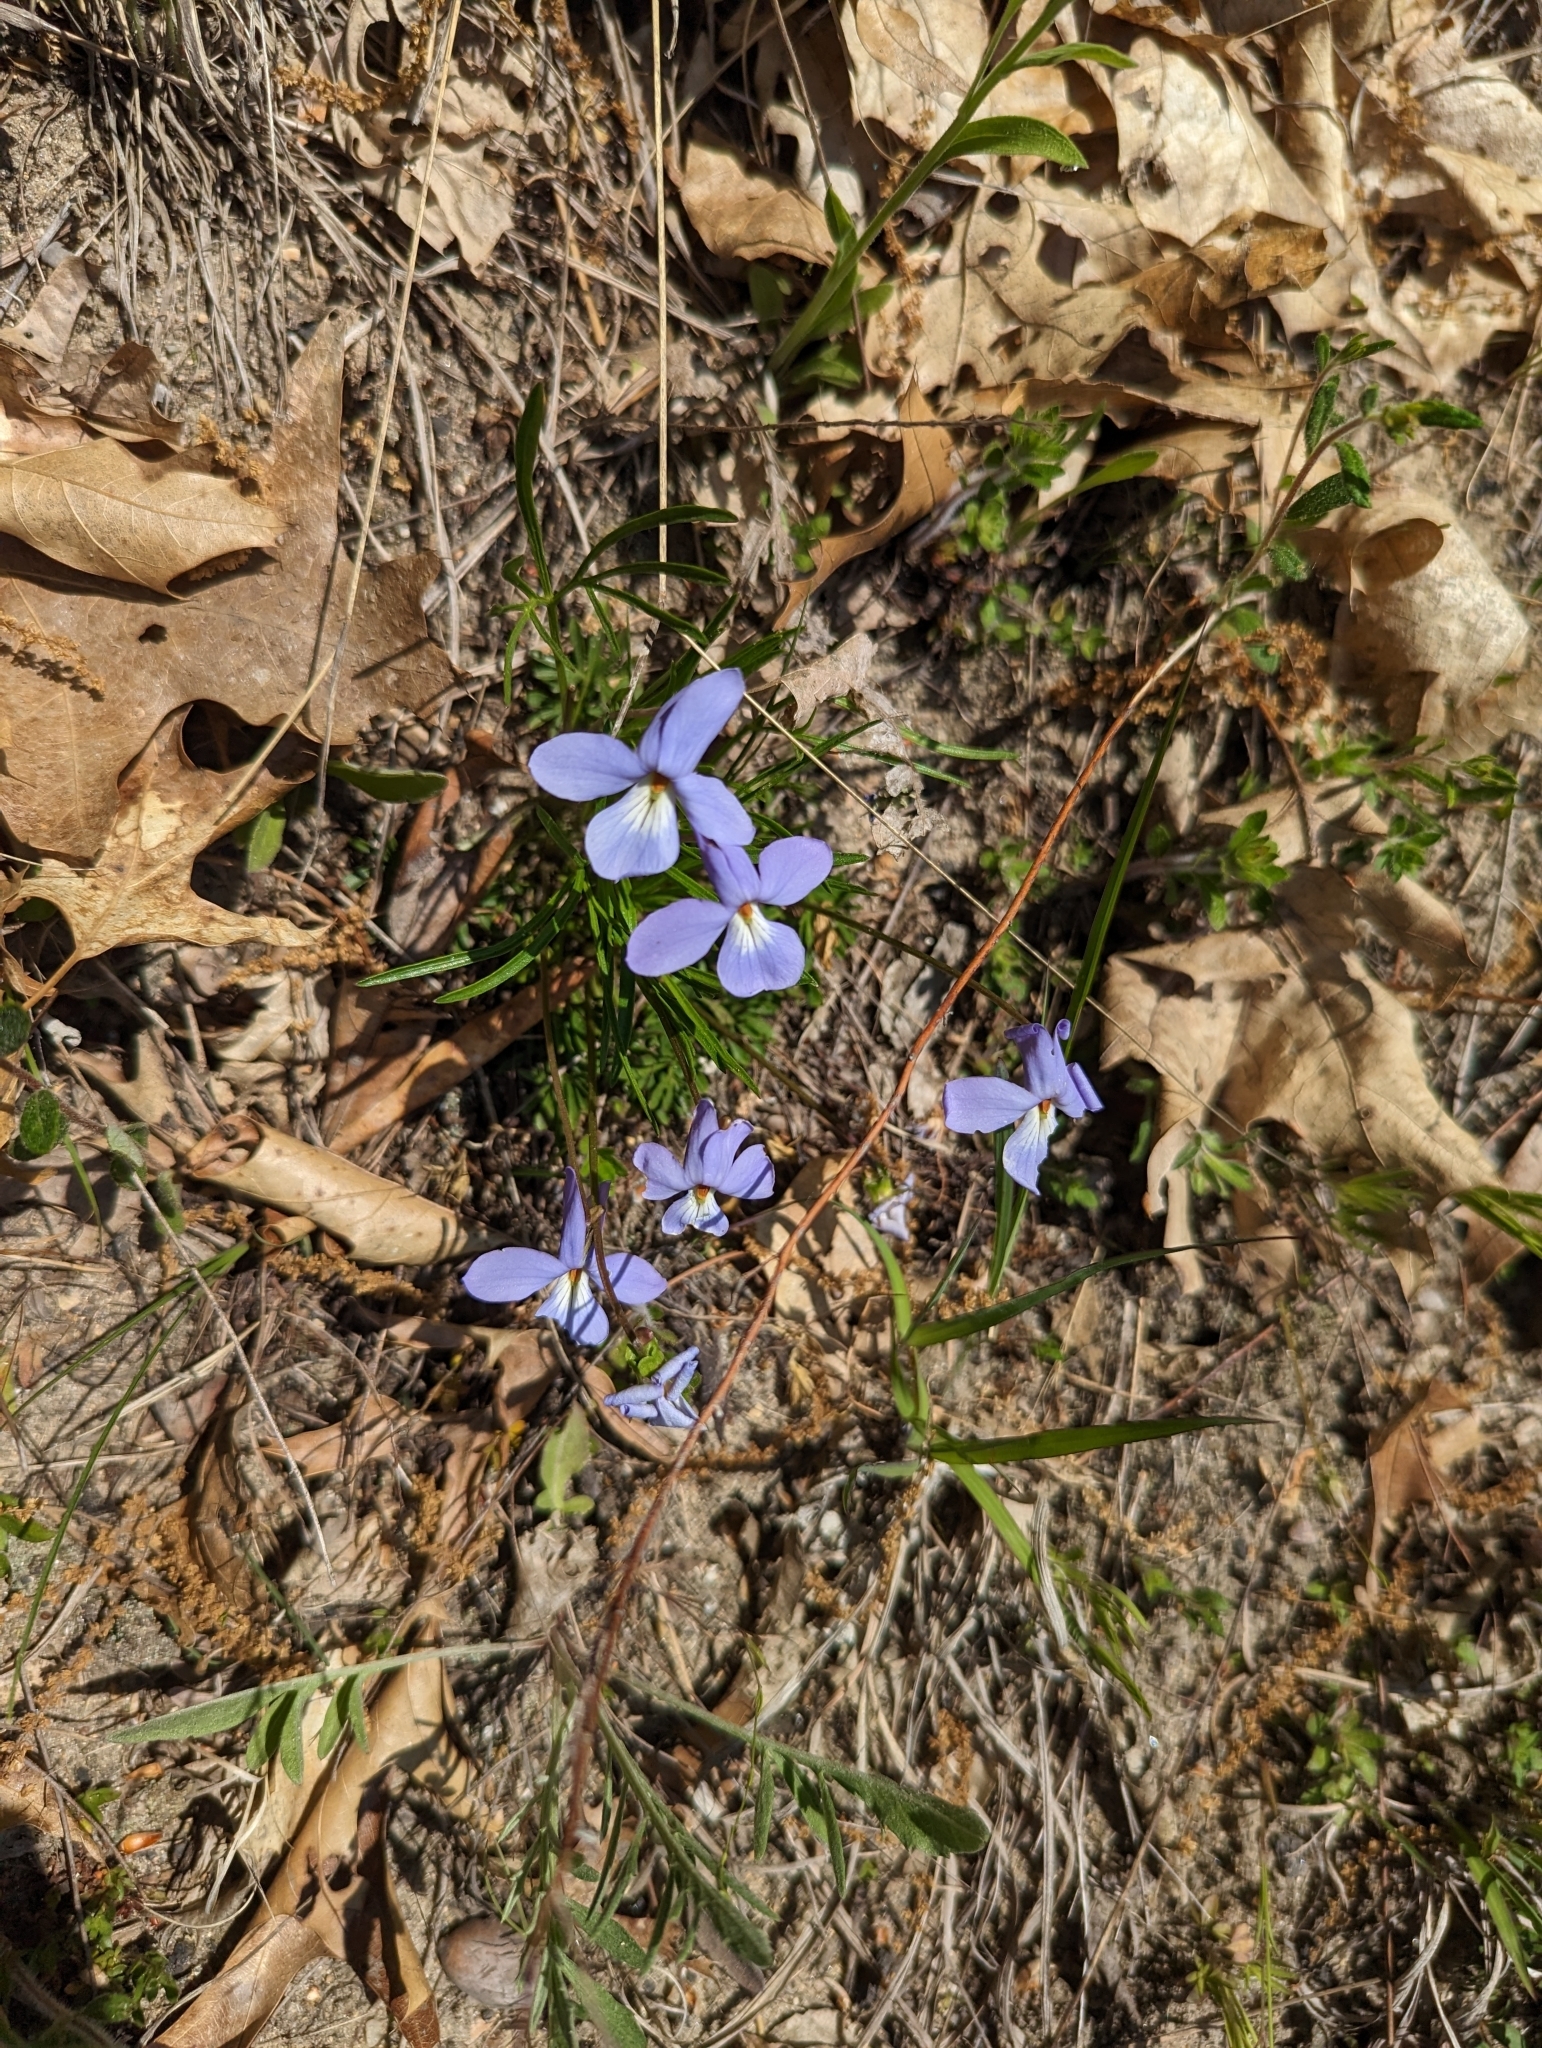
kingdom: Plantae
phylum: Tracheophyta
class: Magnoliopsida
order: Malpighiales
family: Violaceae
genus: Viola
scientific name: Viola pedata
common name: Pansy violet
